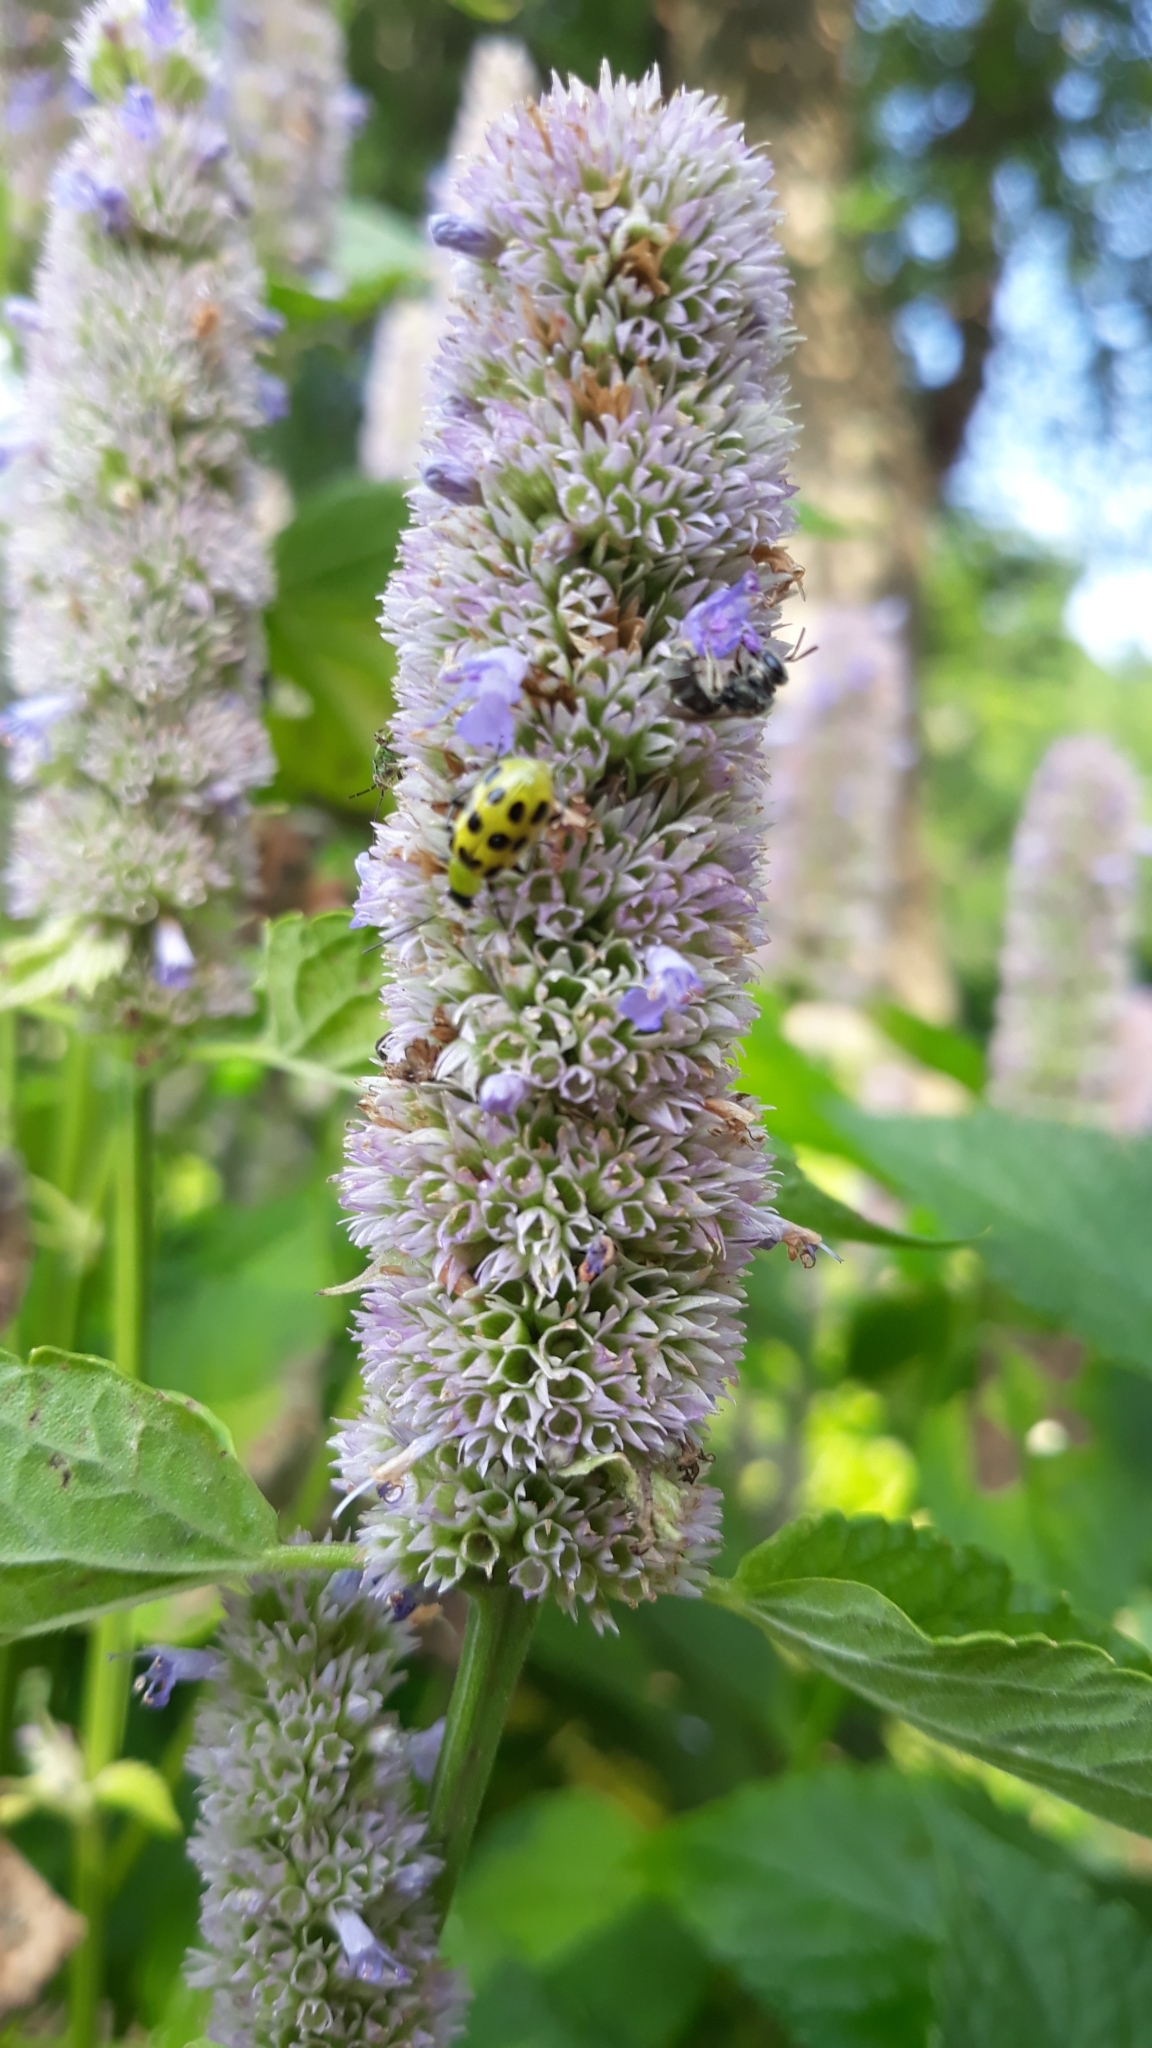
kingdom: Animalia
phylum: Arthropoda
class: Insecta
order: Coleoptera
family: Chrysomelidae
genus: Diabrotica
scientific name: Diabrotica undecimpunctata
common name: Spotted cucumber beetle
